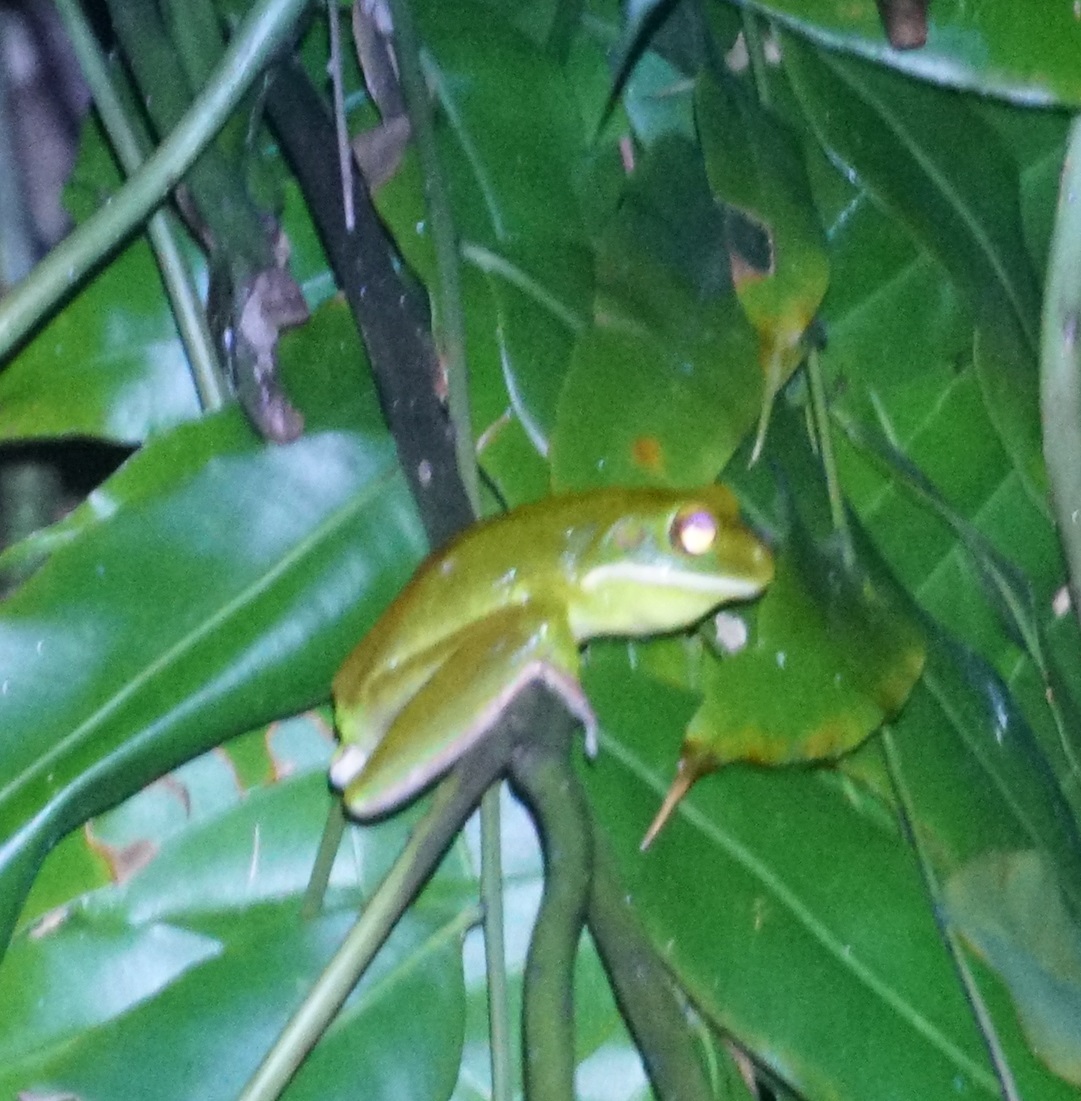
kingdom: Animalia
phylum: Chordata
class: Amphibia
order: Anura
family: Pelodryadidae
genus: Nyctimystes
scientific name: Nyctimystes infrafrenatus
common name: Australian giant treefrog
